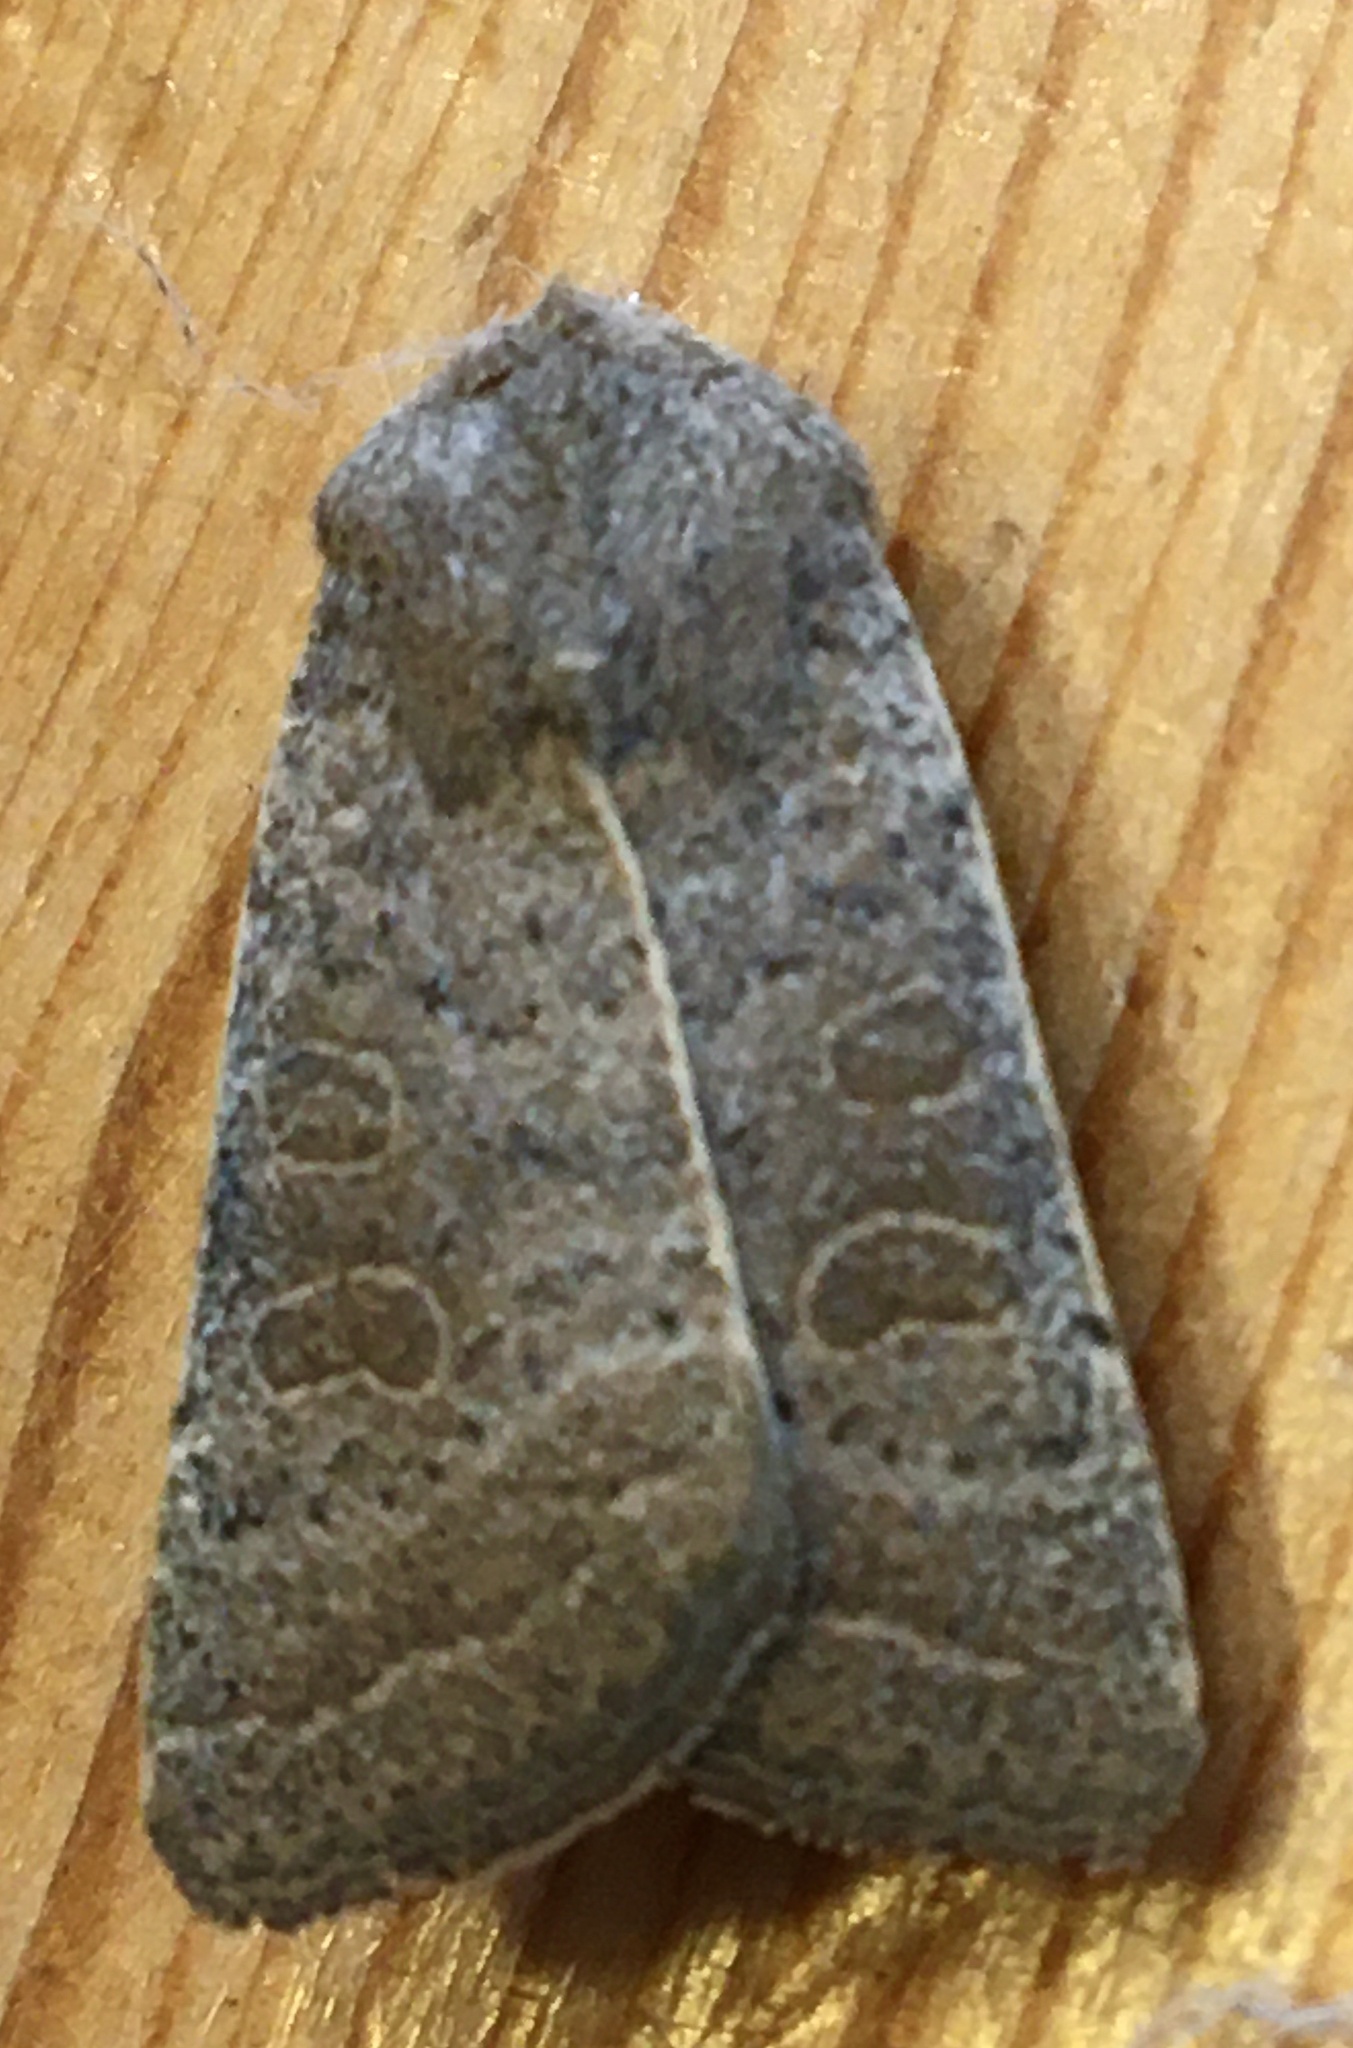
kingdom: Animalia
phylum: Arthropoda
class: Insecta
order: Lepidoptera
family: Noctuidae
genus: Hoplodrina
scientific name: Hoplodrina ambigua
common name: Vine's rustic
